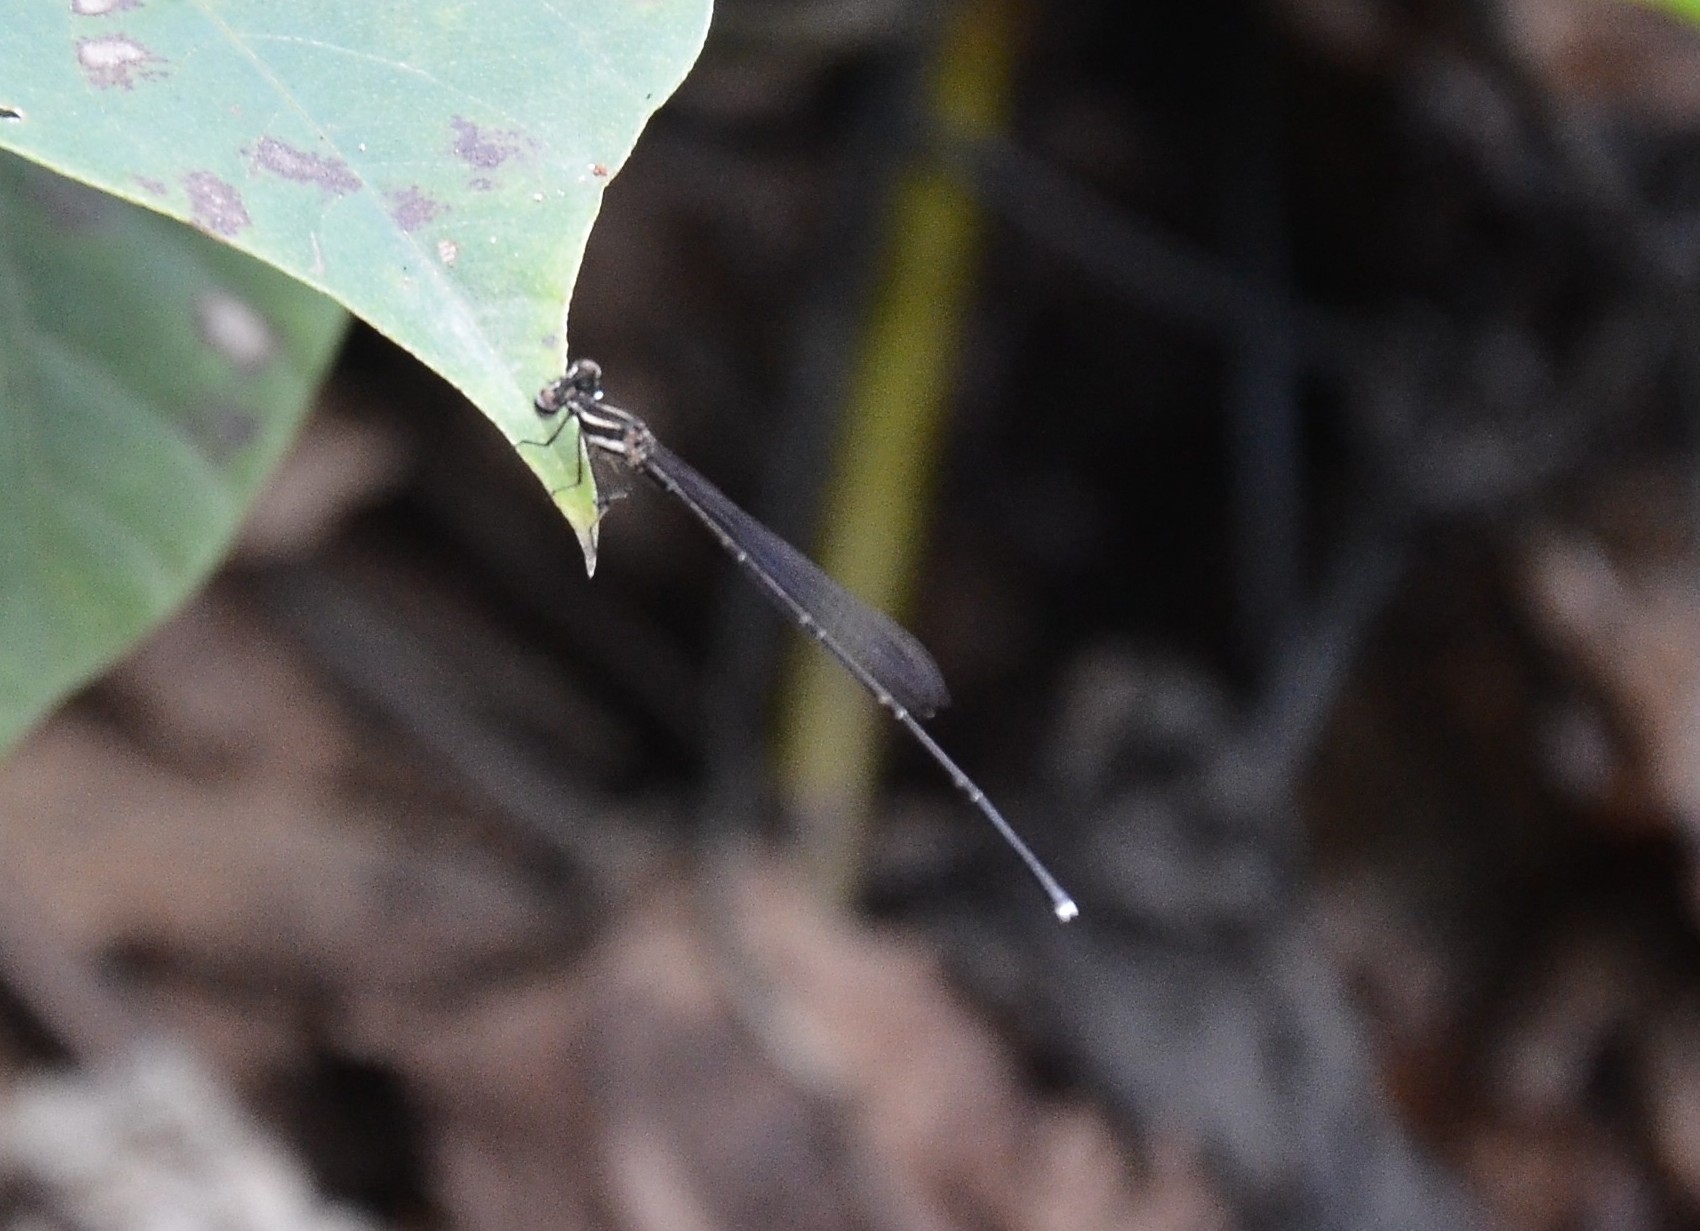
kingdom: Animalia
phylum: Arthropoda
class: Insecta
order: Odonata
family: Platycnemididae
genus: Prodasineura
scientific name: Prodasineura verticalis
